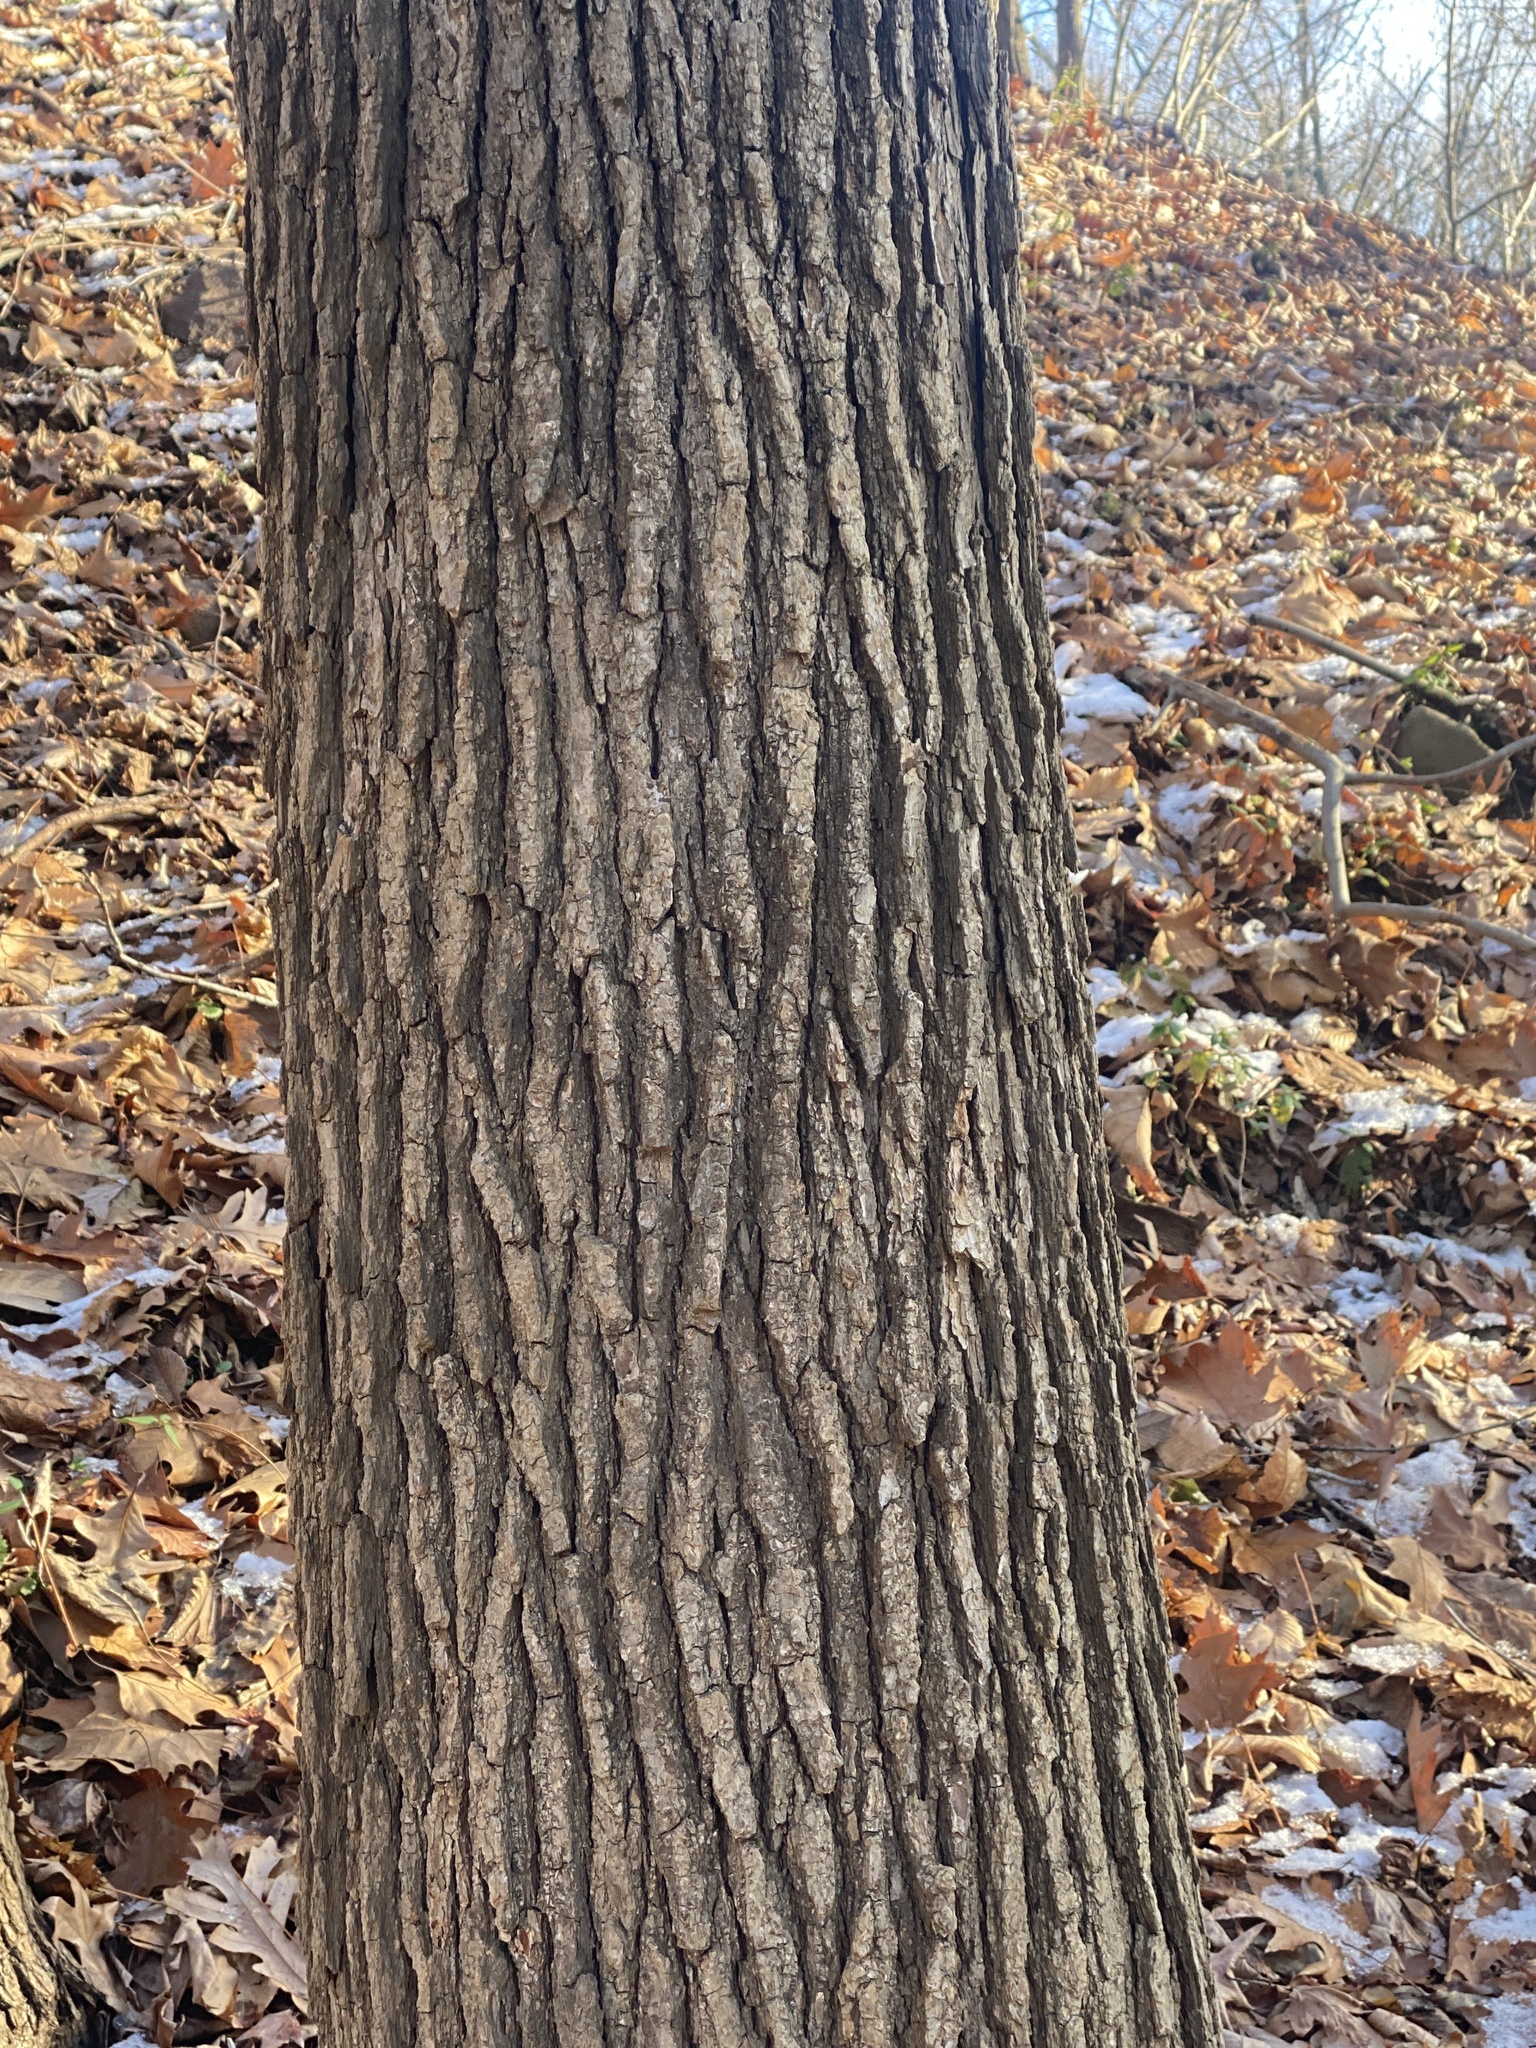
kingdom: Plantae
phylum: Tracheophyta
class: Magnoliopsida
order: Saxifragales
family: Altingiaceae
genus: Liquidambar
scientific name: Liquidambar styraciflua
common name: Sweet gum
